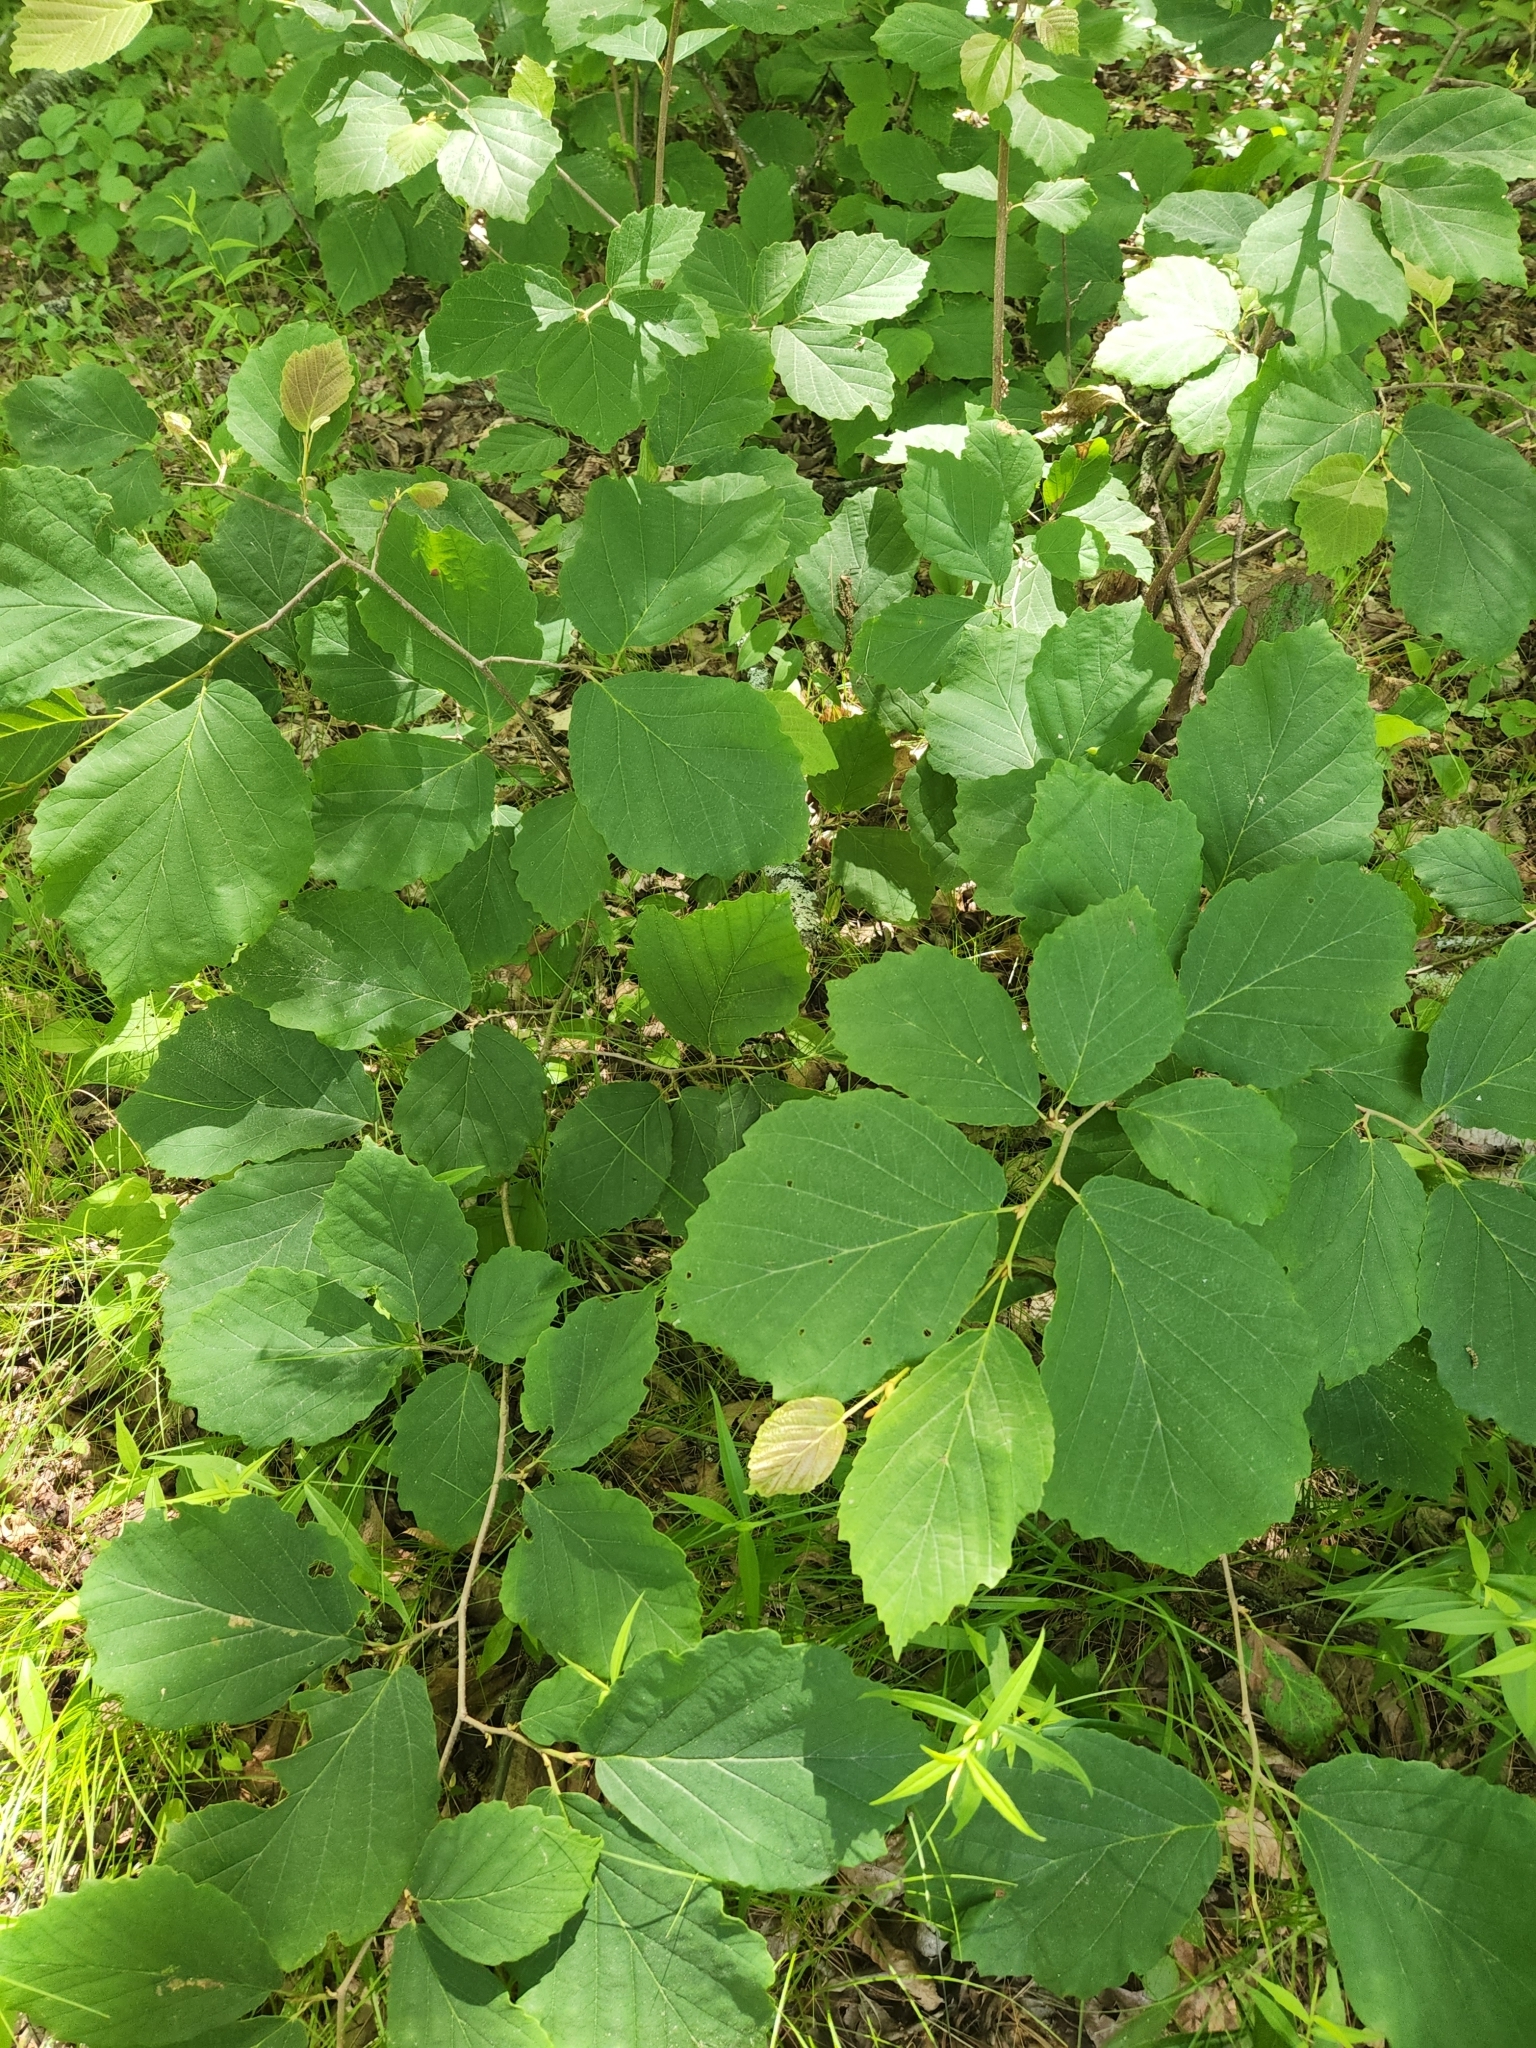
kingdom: Plantae
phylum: Tracheophyta
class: Magnoliopsida
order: Saxifragales
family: Hamamelidaceae
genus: Hamamelis
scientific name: Hamamelis virginiana
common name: Witch-hazel
